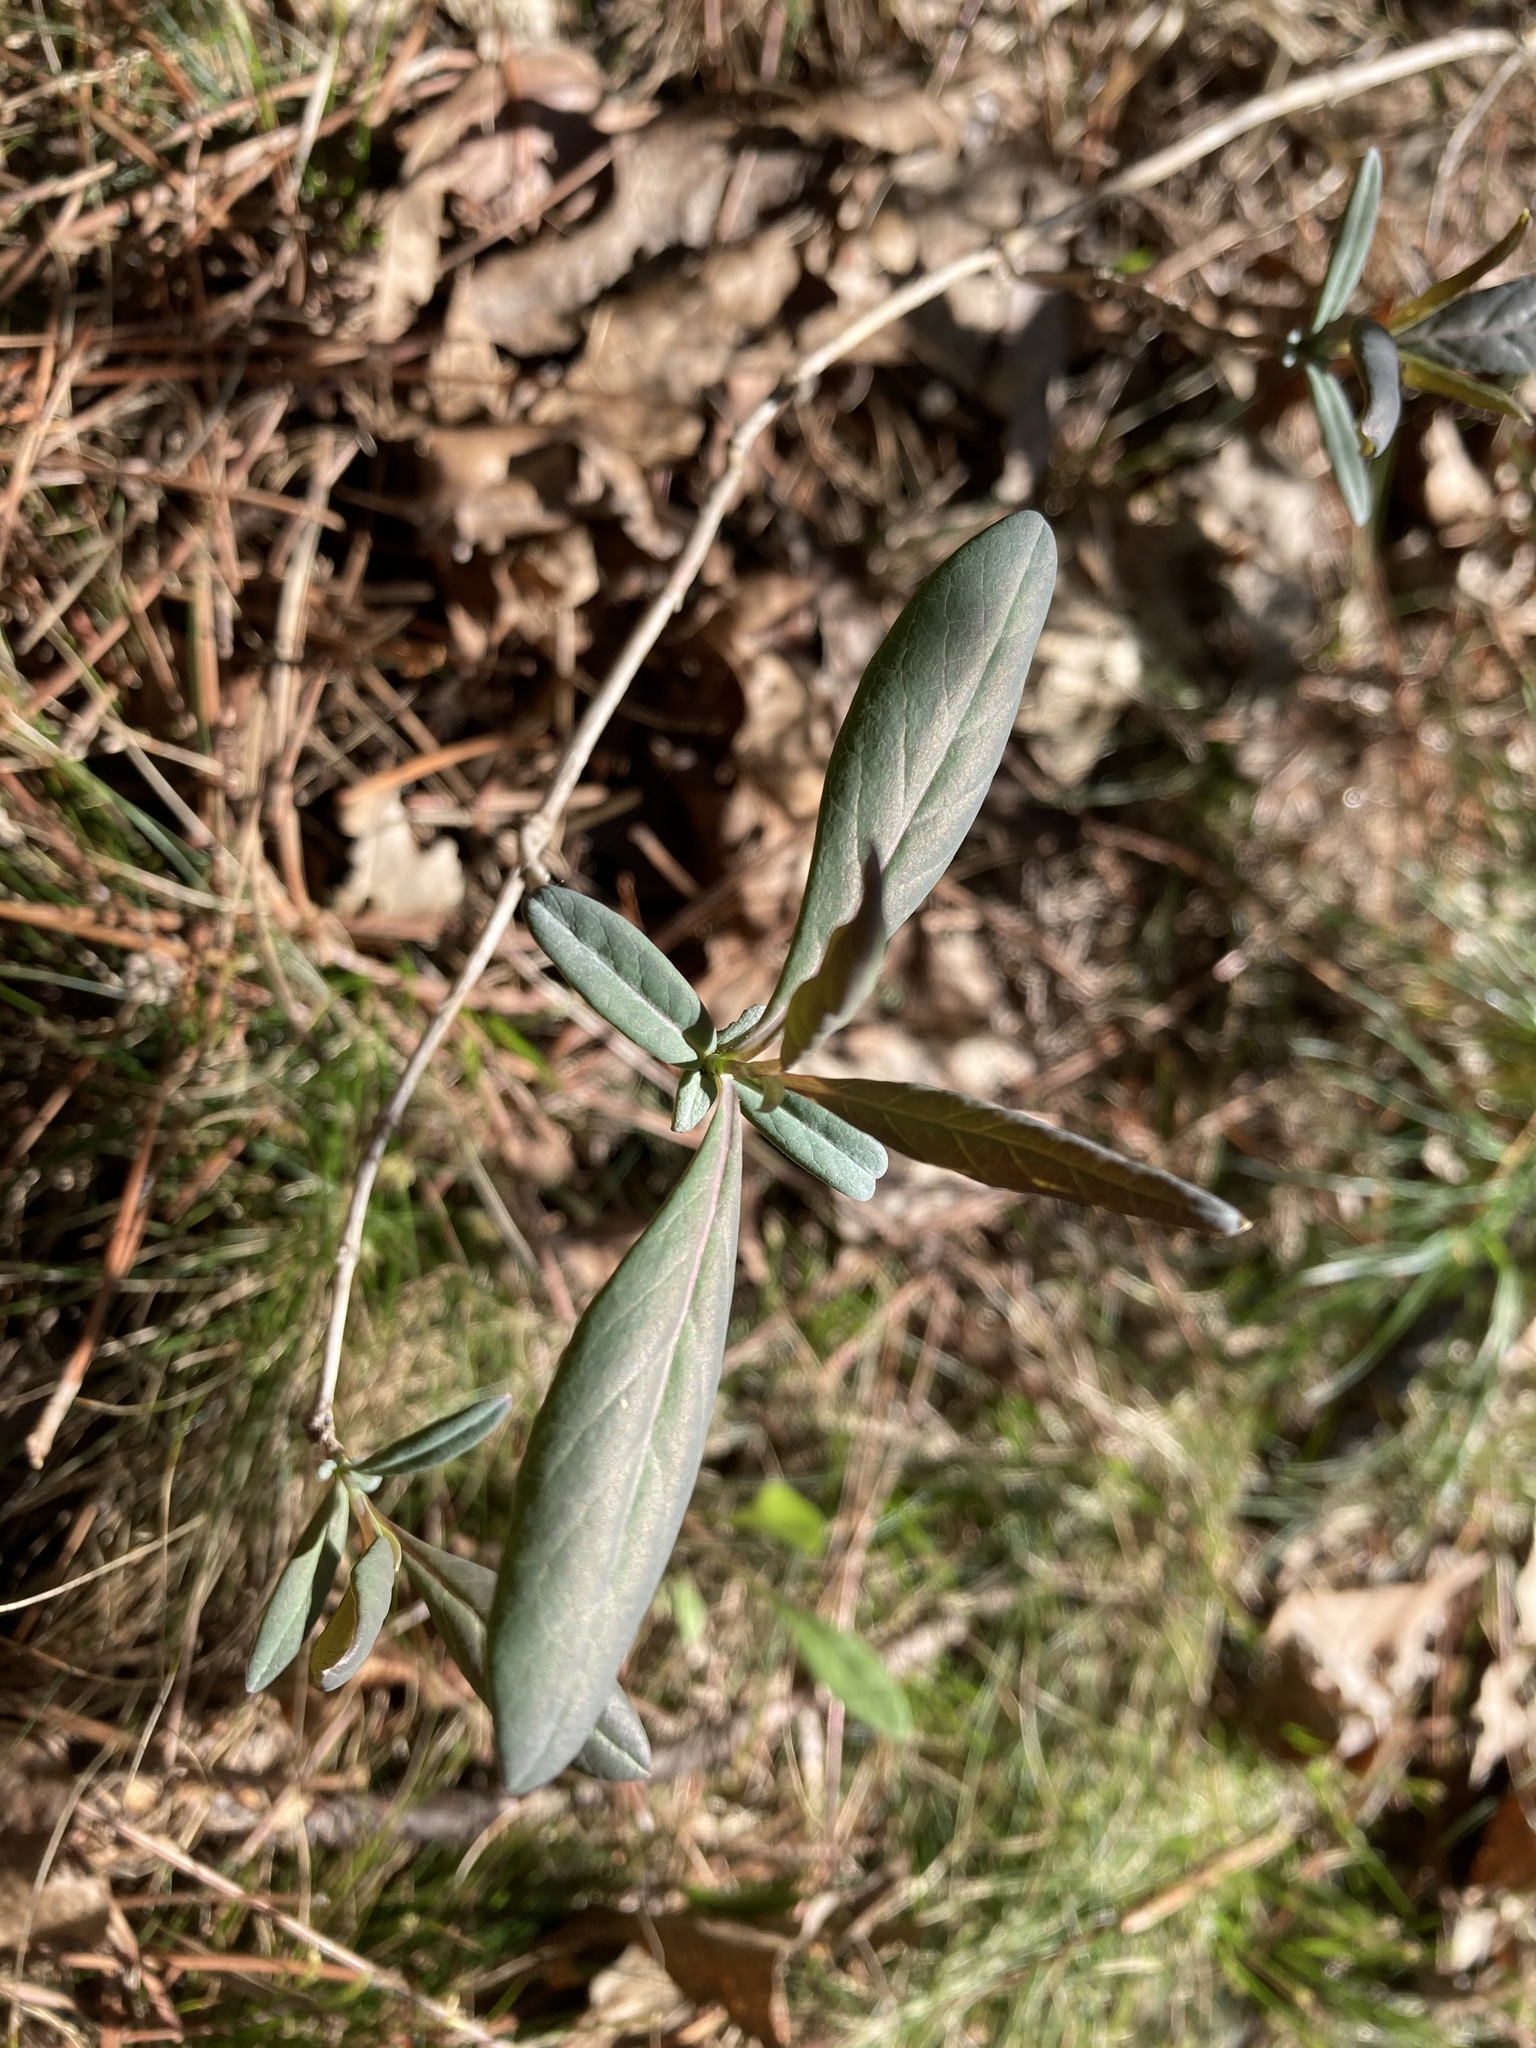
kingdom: Plantae
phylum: Tracheophyta
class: Magnoliopsida
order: Dipsacales
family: Caprifoliaceae
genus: Lonicera
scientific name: Lonicera dioica
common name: Limber honeysuckle
